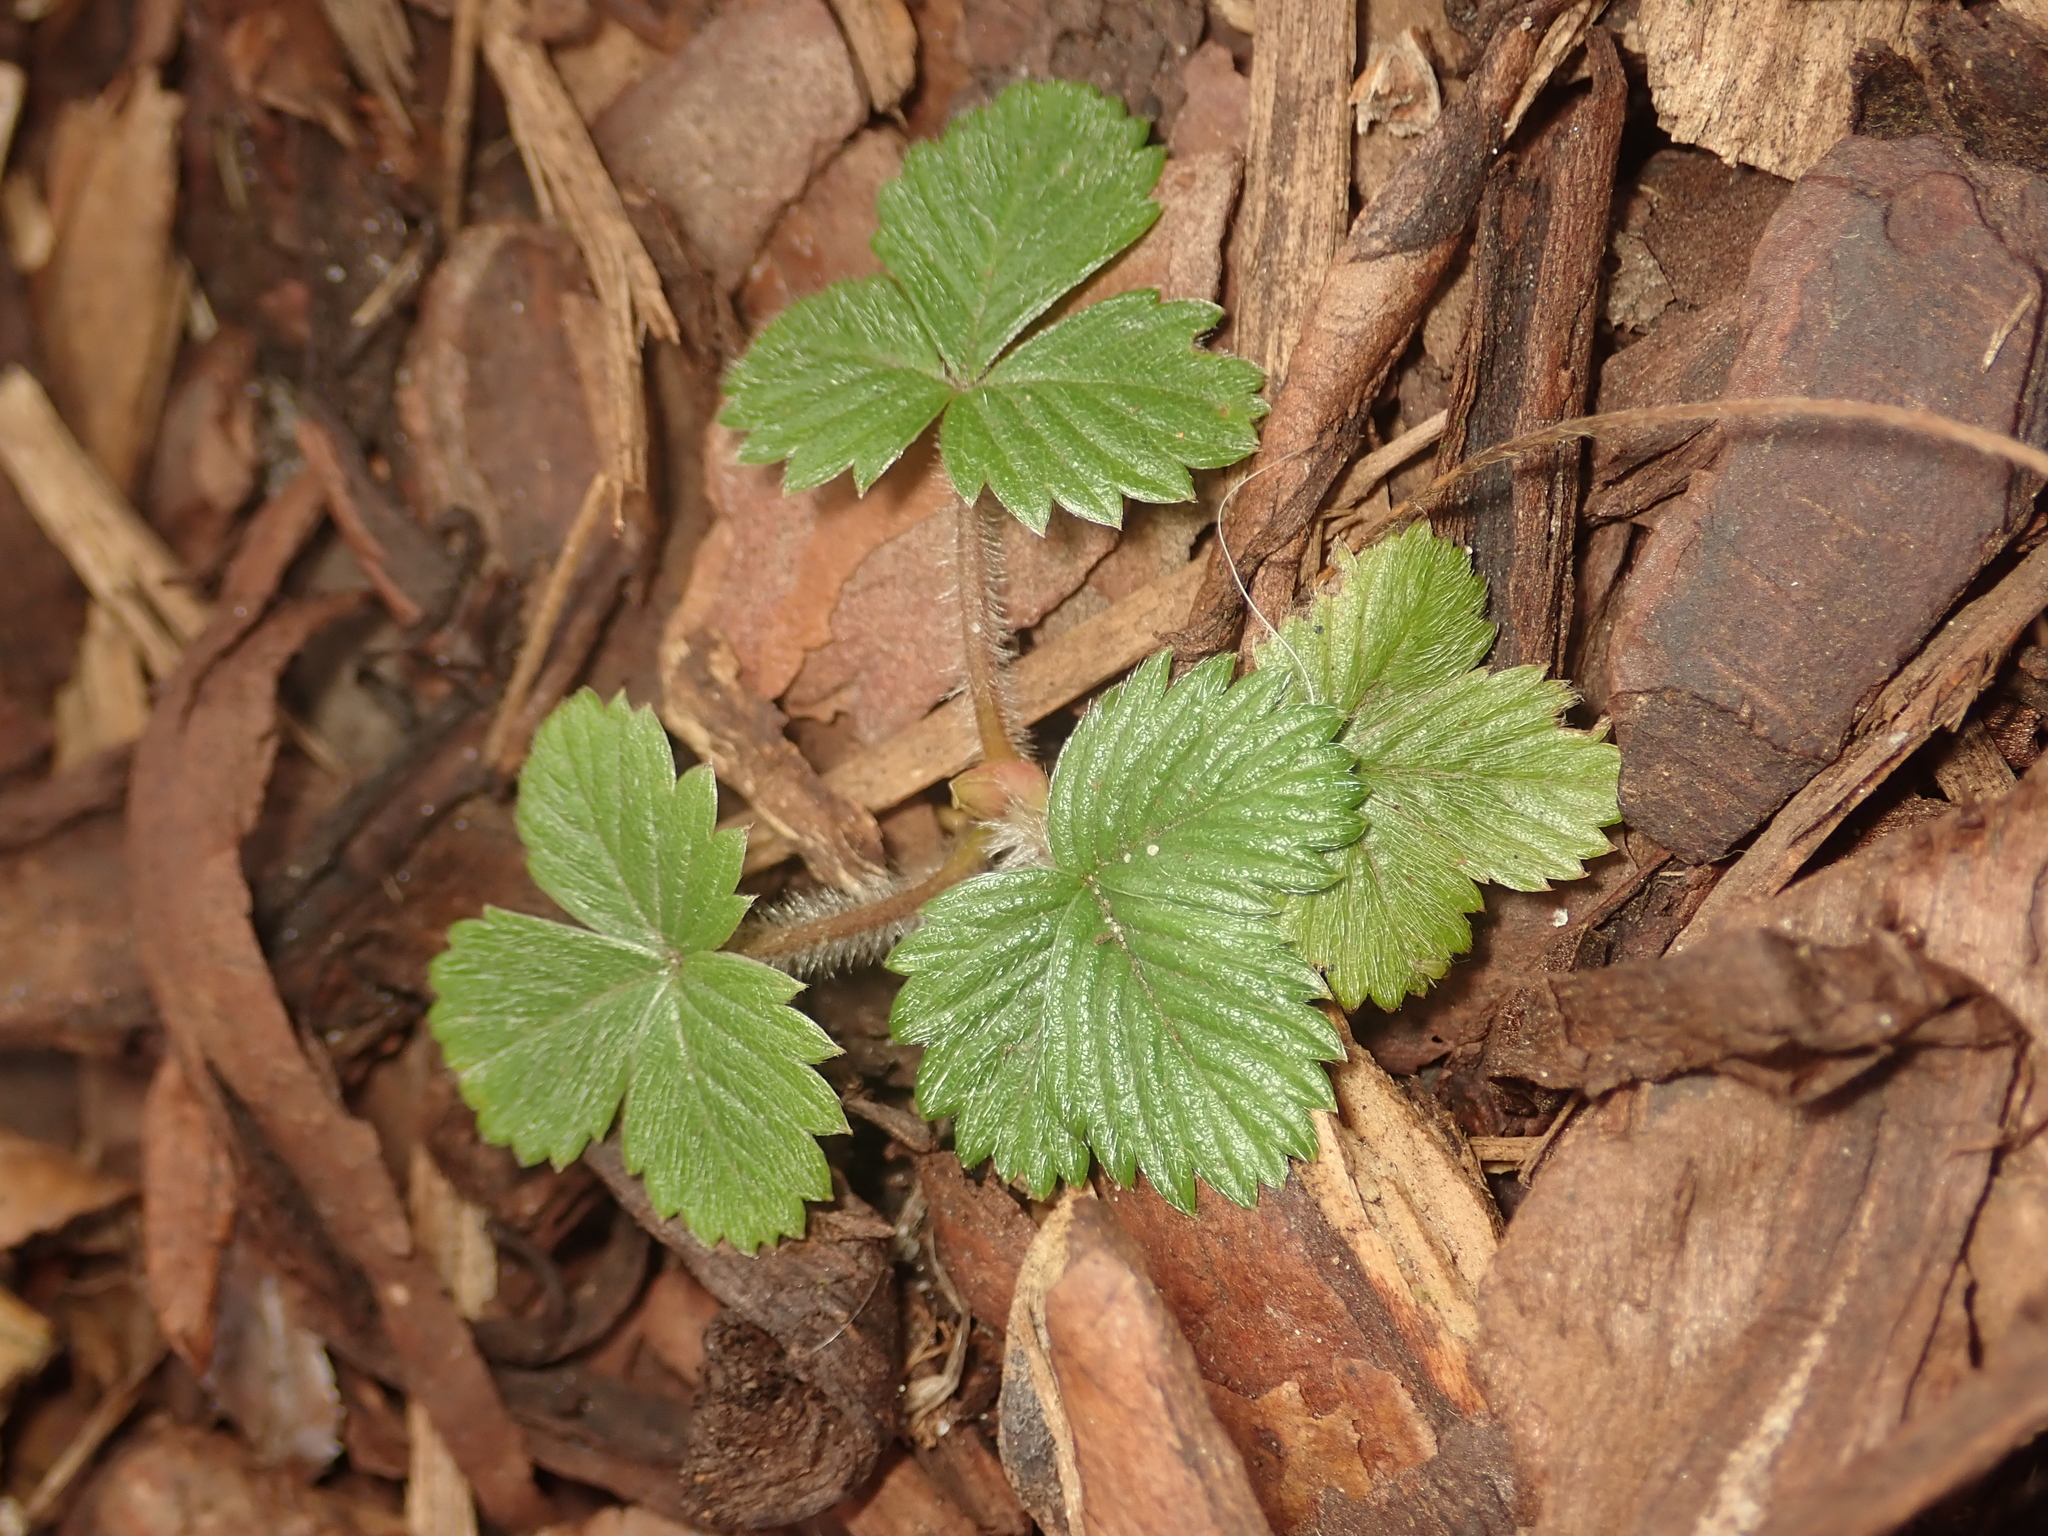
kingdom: Plantae
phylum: Tracheophyta
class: Magnoliopsida
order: Rosales
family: Rosaceae
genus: Fragaria
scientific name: Fragaria vesca
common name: Wild strawberry
